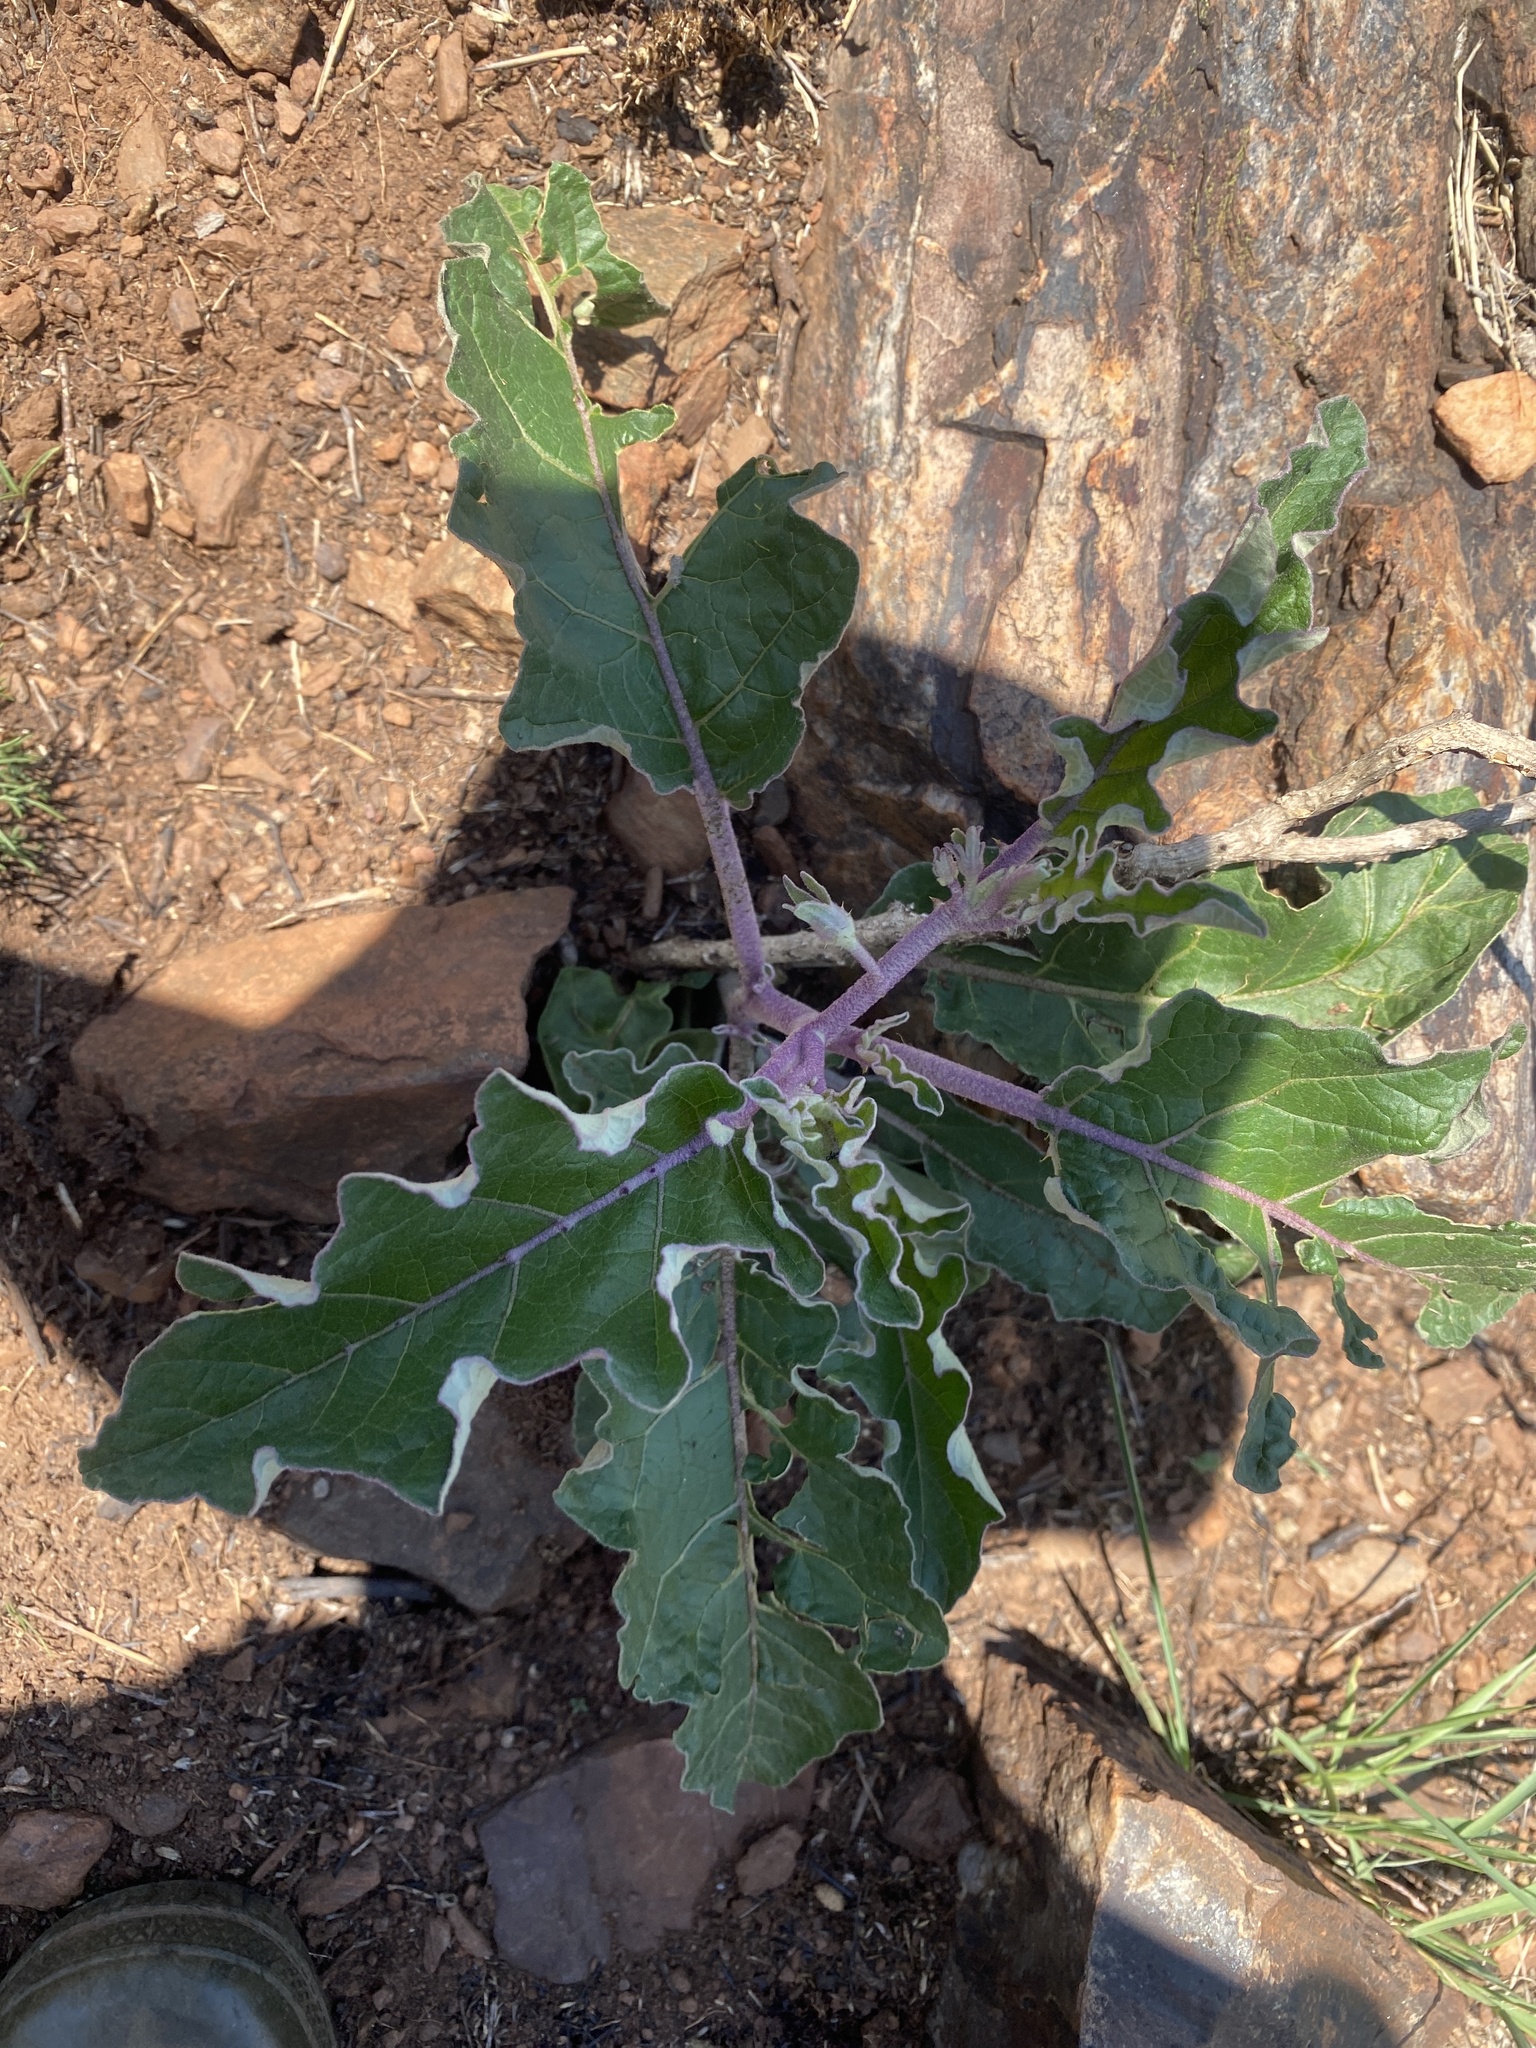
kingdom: Plantae
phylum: Tracheophyta
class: Magnoliopsida
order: Solanales
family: Solanaceae
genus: Solanum
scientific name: Solanum lichtensteinii
